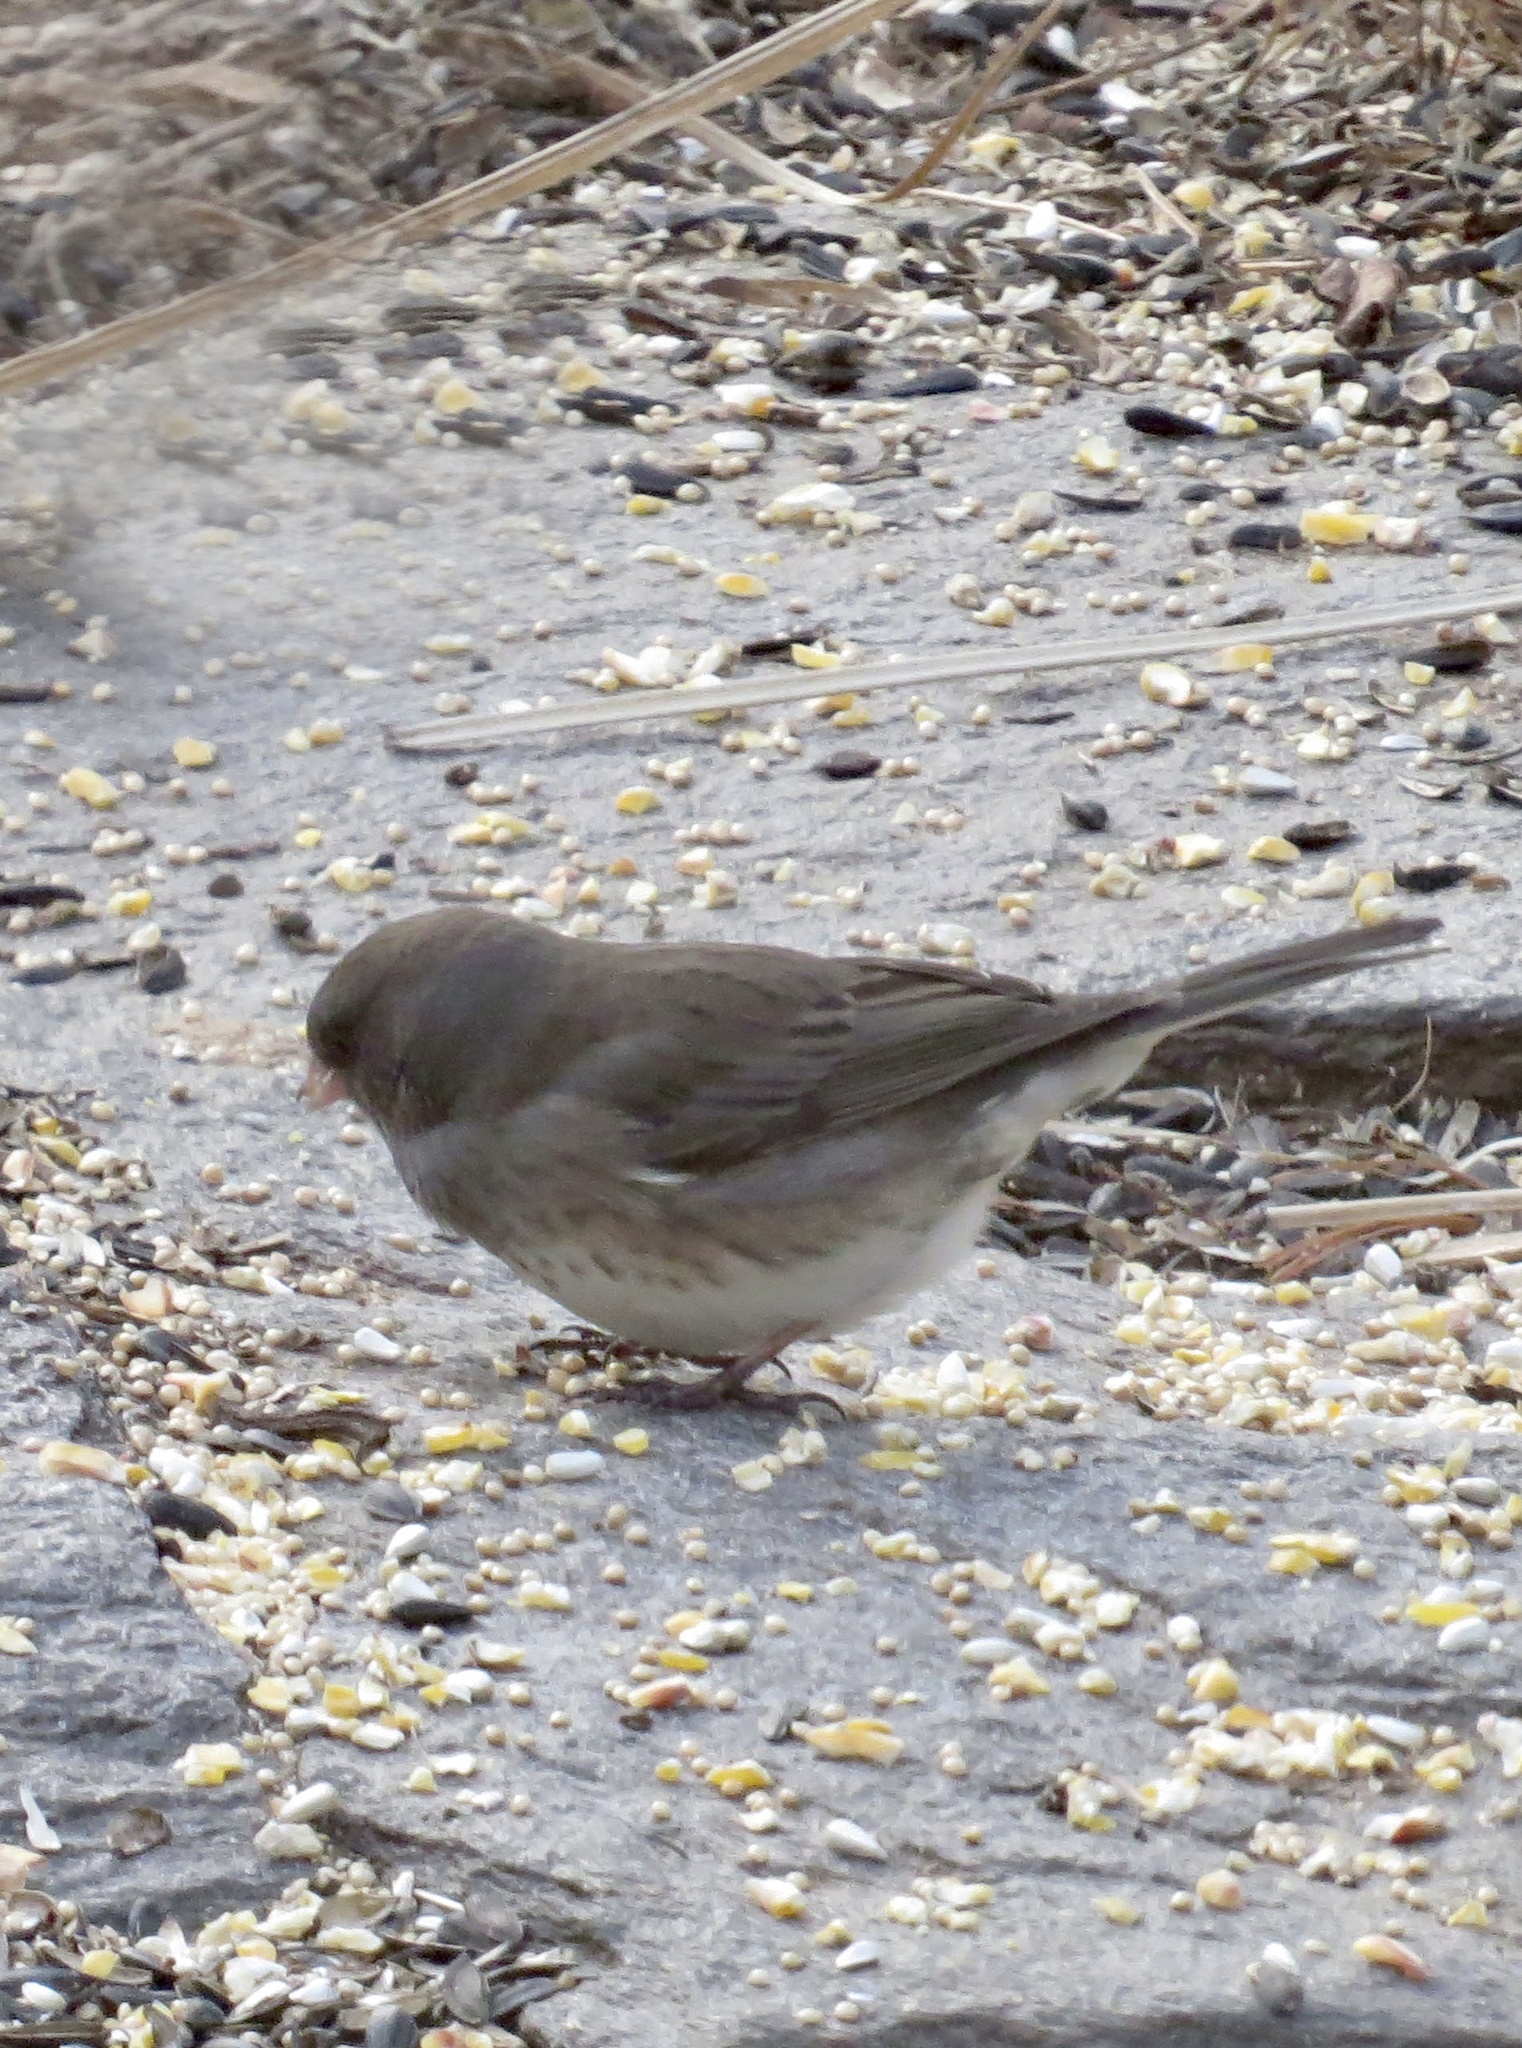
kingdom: Animalia
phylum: Chordata
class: Aves
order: Passeriformes
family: Passerellidae
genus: Junco
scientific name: Junco hyemalis
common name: Dark-eyed junco
